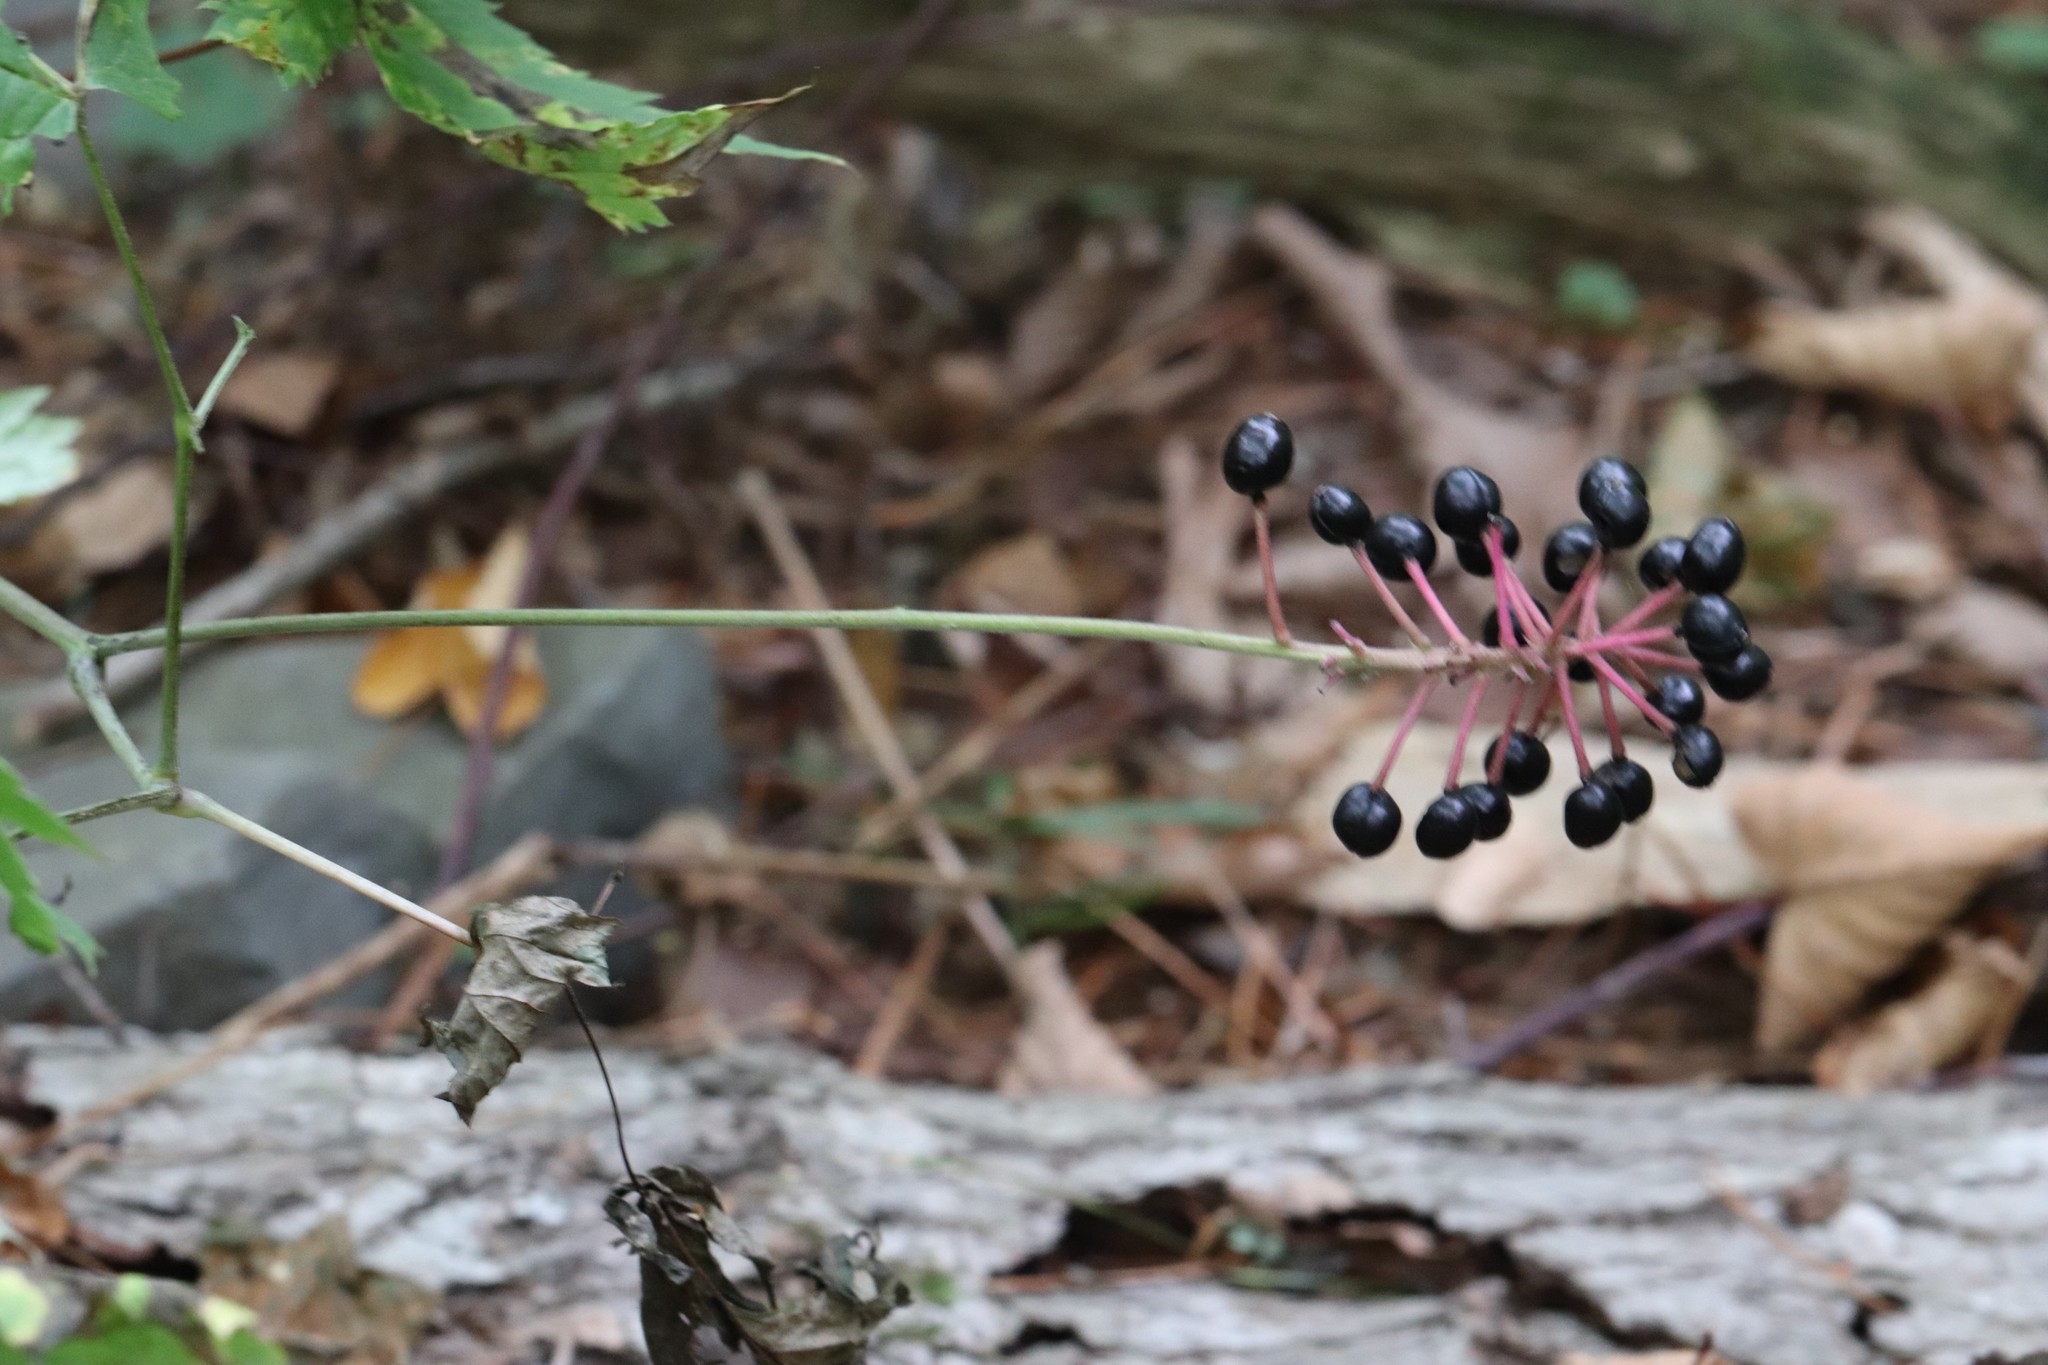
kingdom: Plantae
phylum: Tracheophyta
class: Magnoliopsida
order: Ranunculales
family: Ranunculaceae
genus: Actaea
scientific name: Actaea spicata
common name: Baneberry
